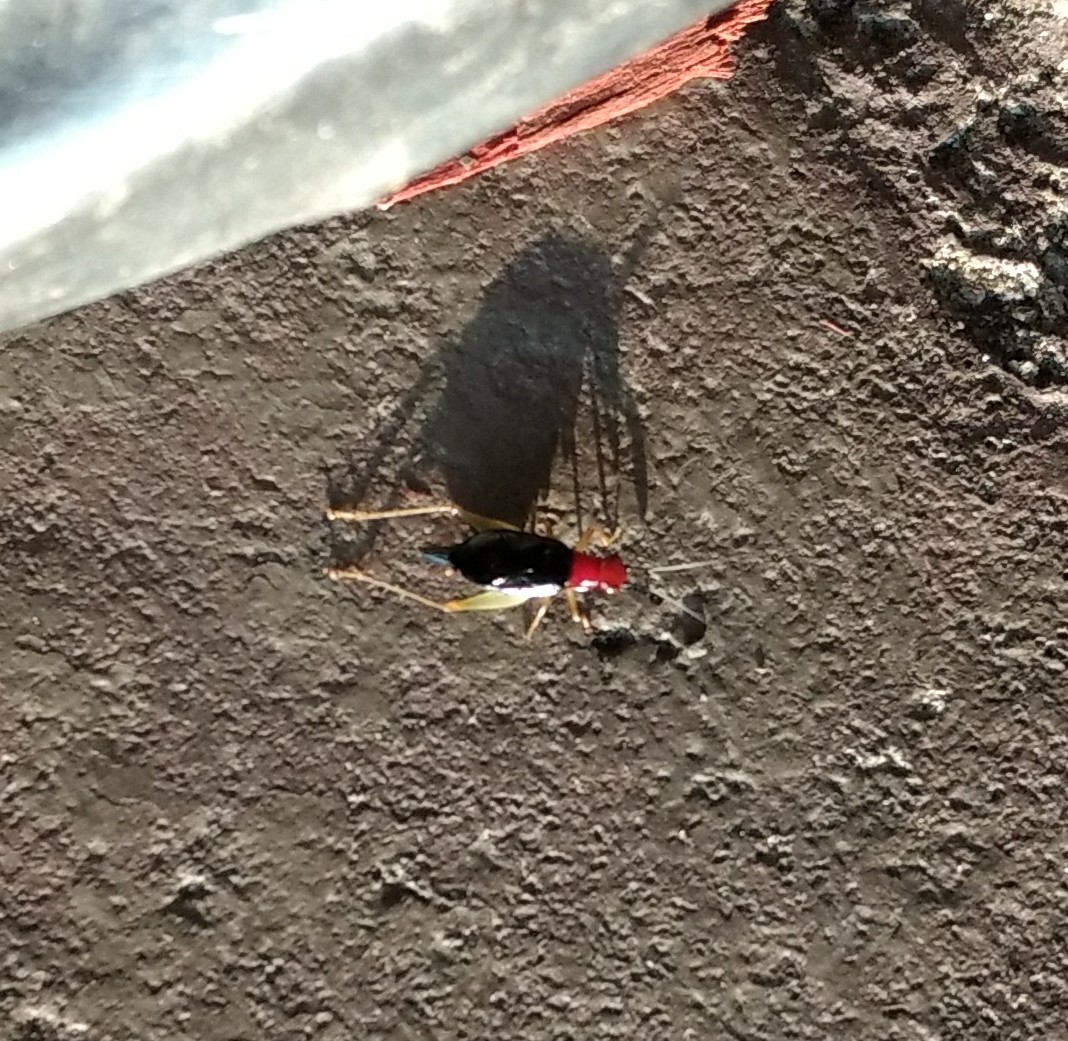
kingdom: Animalia
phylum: Arthropoda
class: Insecta
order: Orthoptera
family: Trigonidiidae
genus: Phyllopalpus
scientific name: Phyllopalpus pulchellus
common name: Handsome trig
